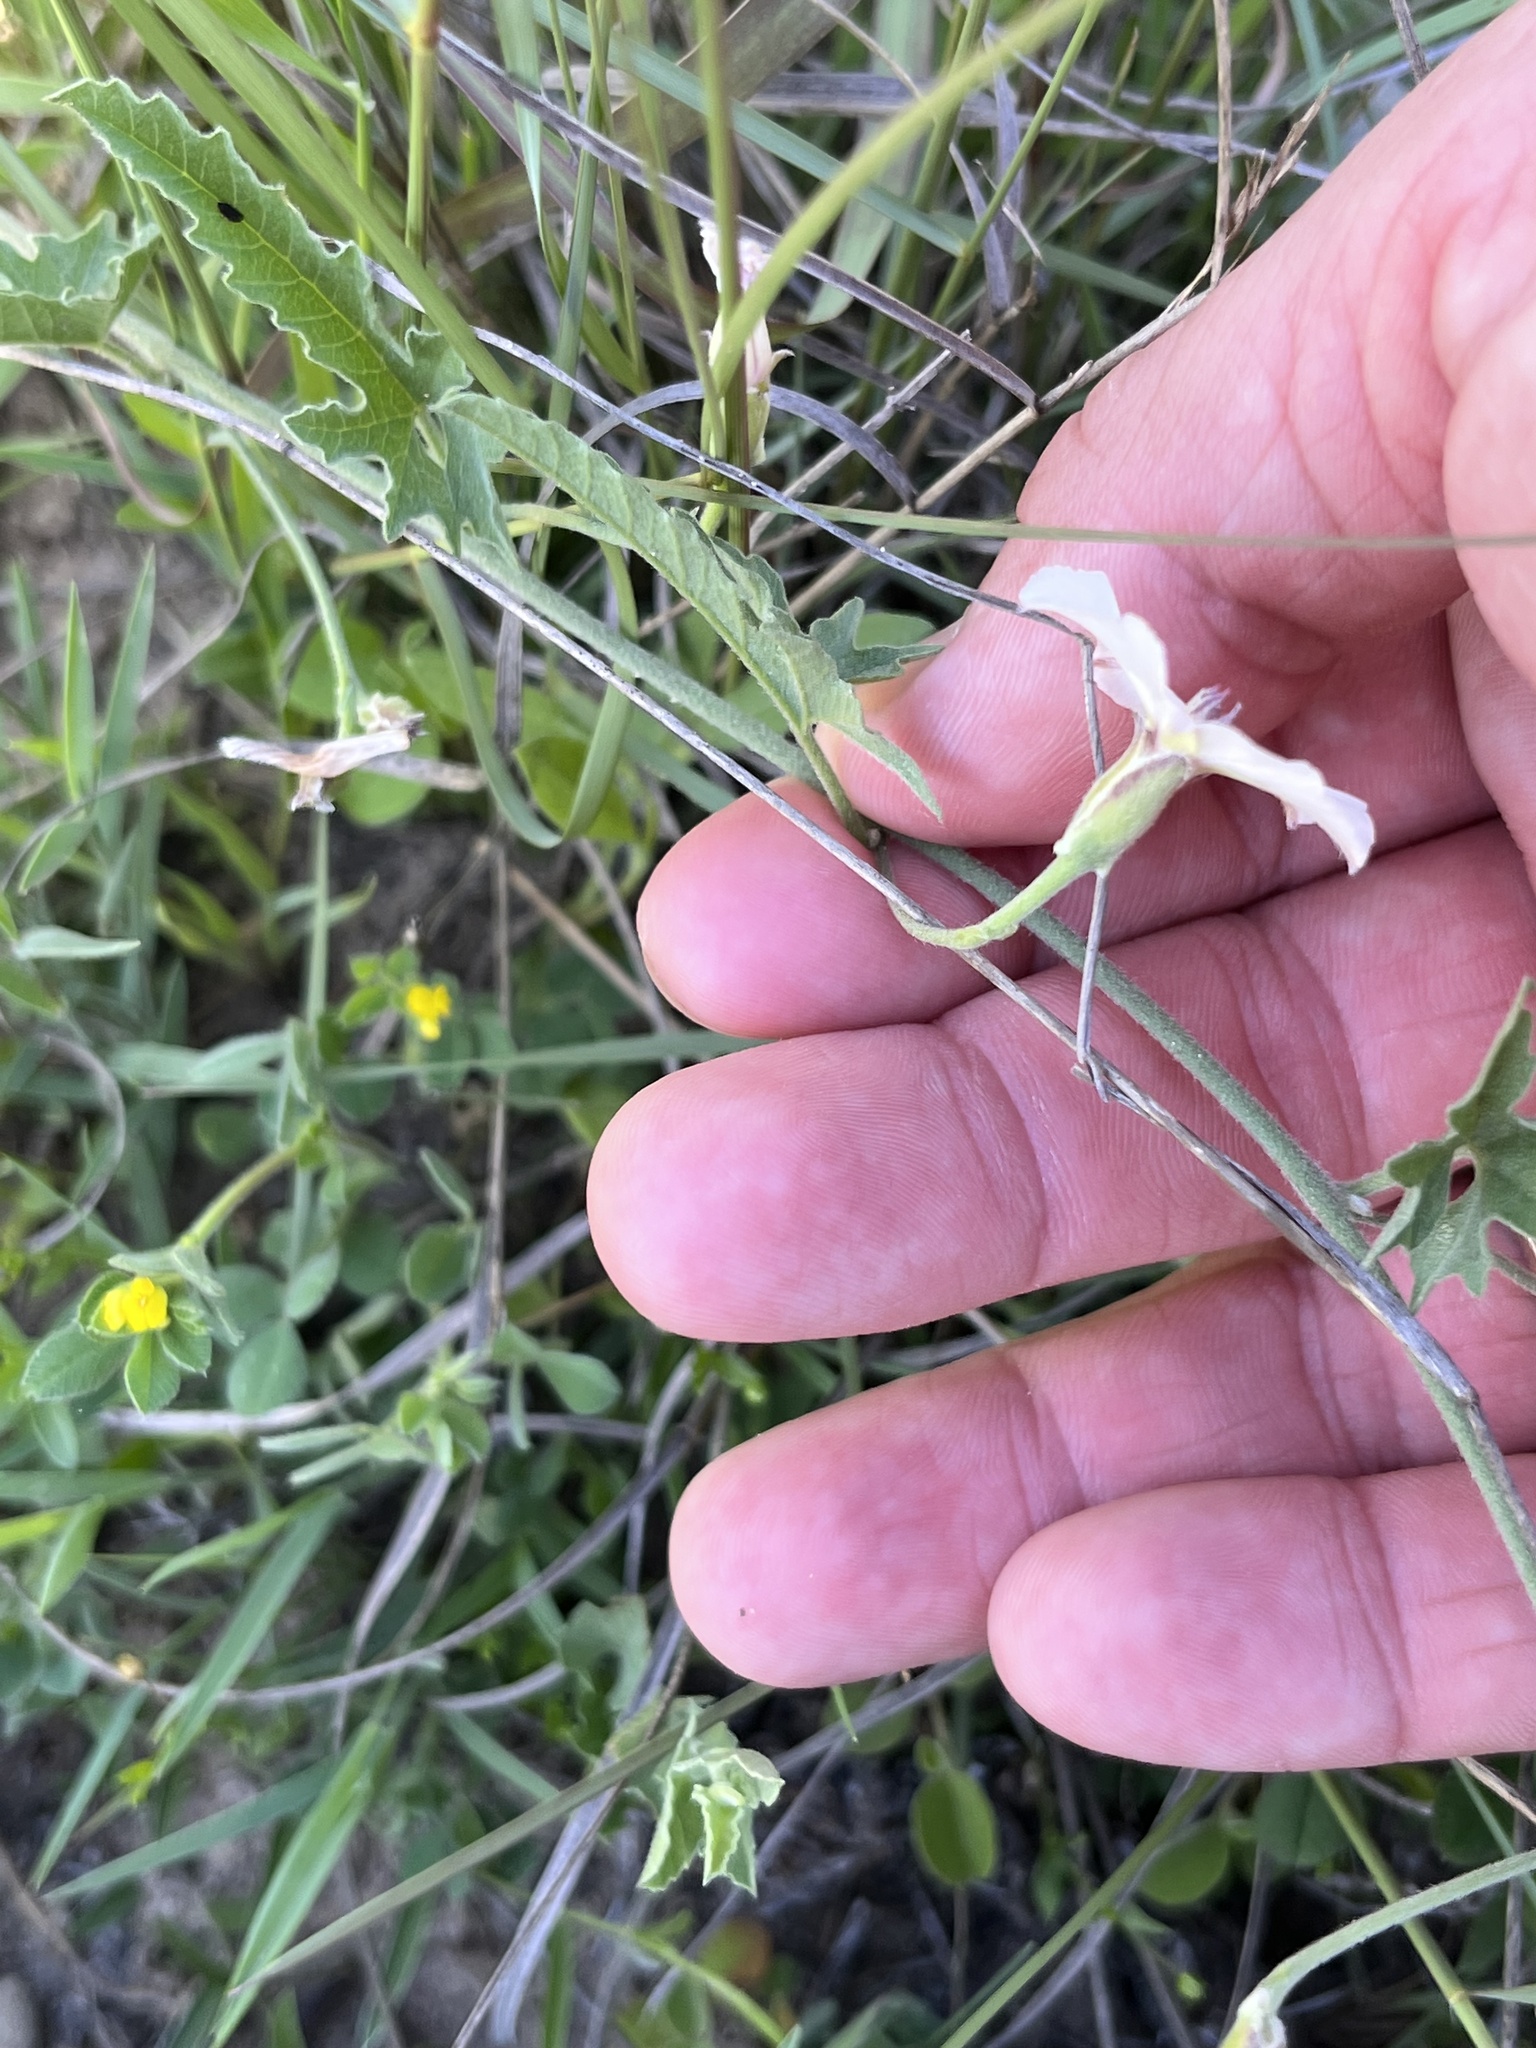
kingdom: Plantae
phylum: Tracheophyta
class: Magnoliopsida
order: Solanales
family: Convolvulaceae
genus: Convolvulus
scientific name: Convolvulus equitans
